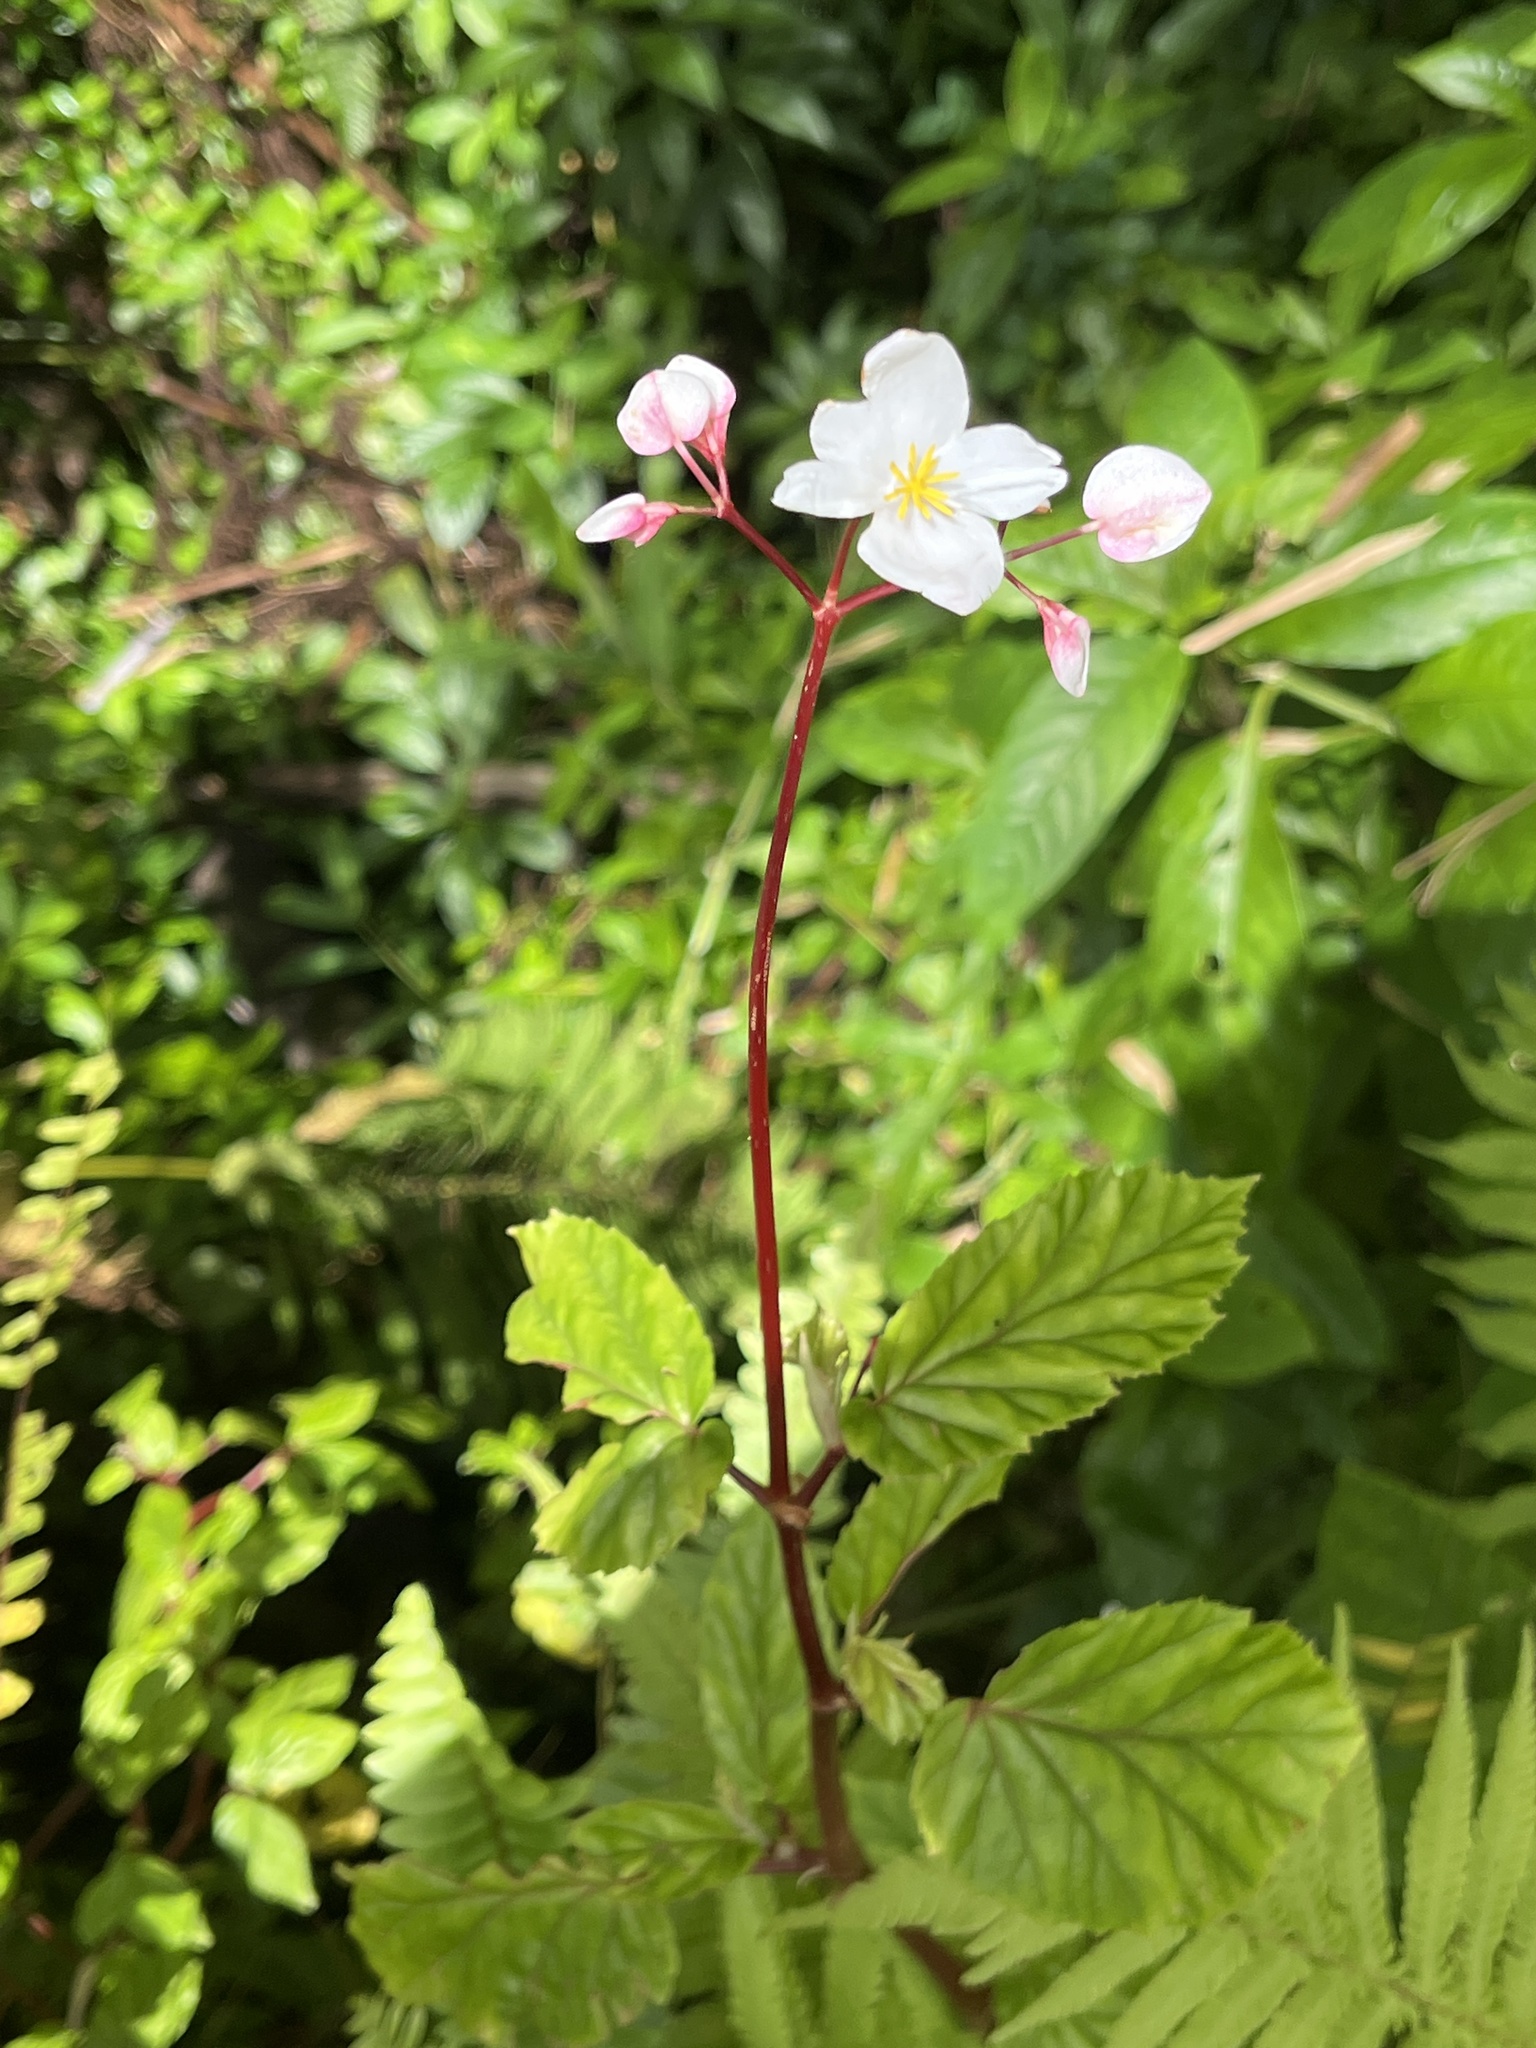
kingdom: Plantae
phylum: Tracheophyta
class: Magnoliopsida
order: Cucurbitales
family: Begoniaceae
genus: Begonia
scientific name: Begonia decandra
